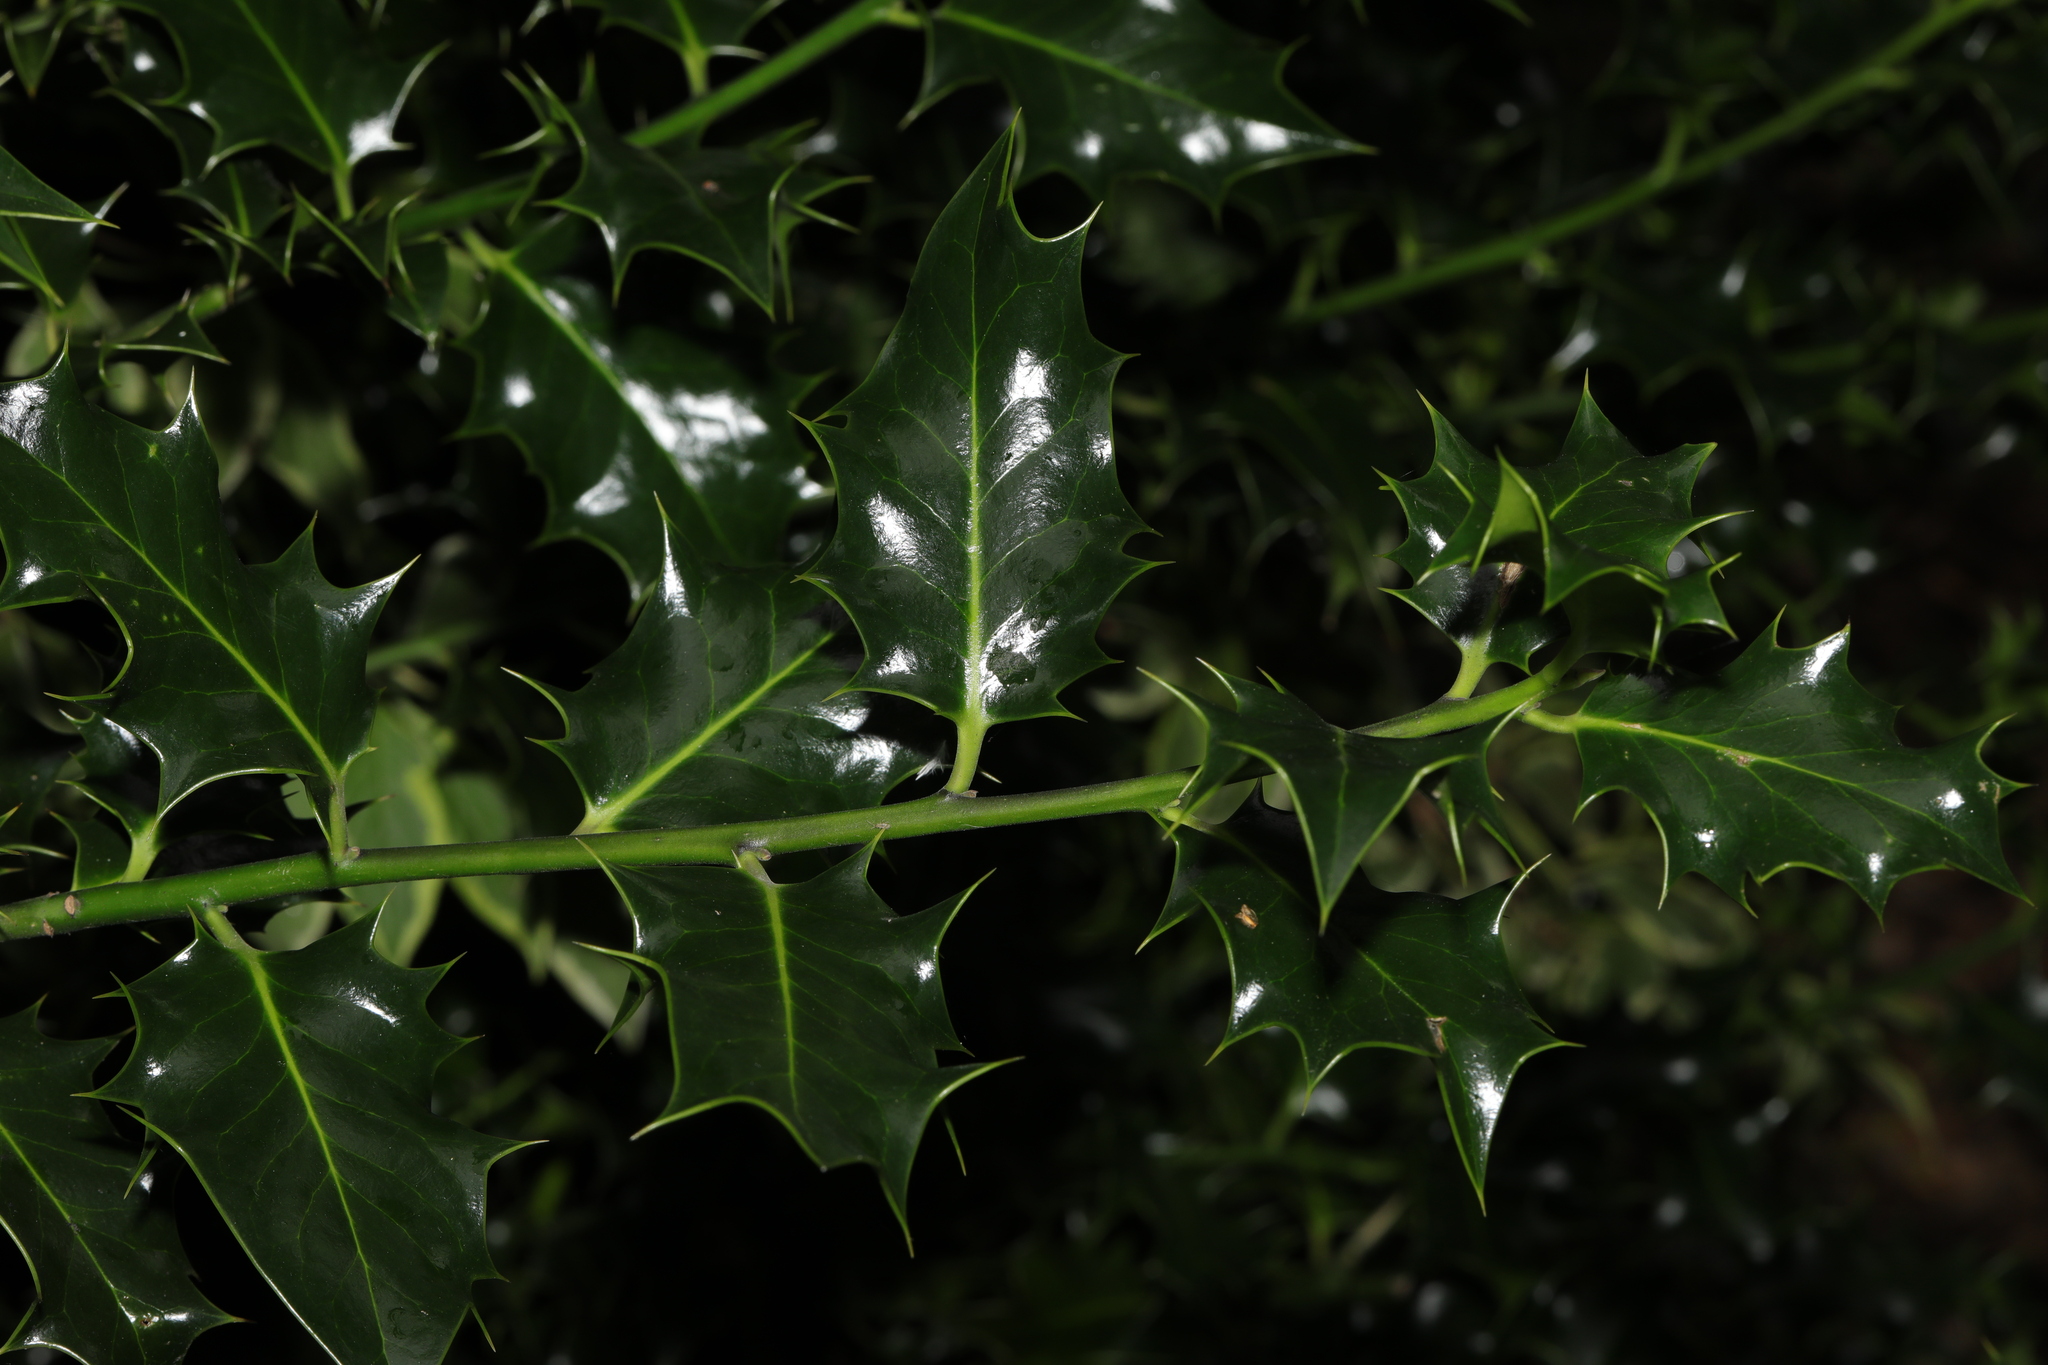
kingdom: Plantae
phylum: Tracheophyta
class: Magnoliopsida
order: Aquifoliales
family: Aquifoliaceae
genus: Ilex
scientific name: Ilex aquifolium
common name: English holly
